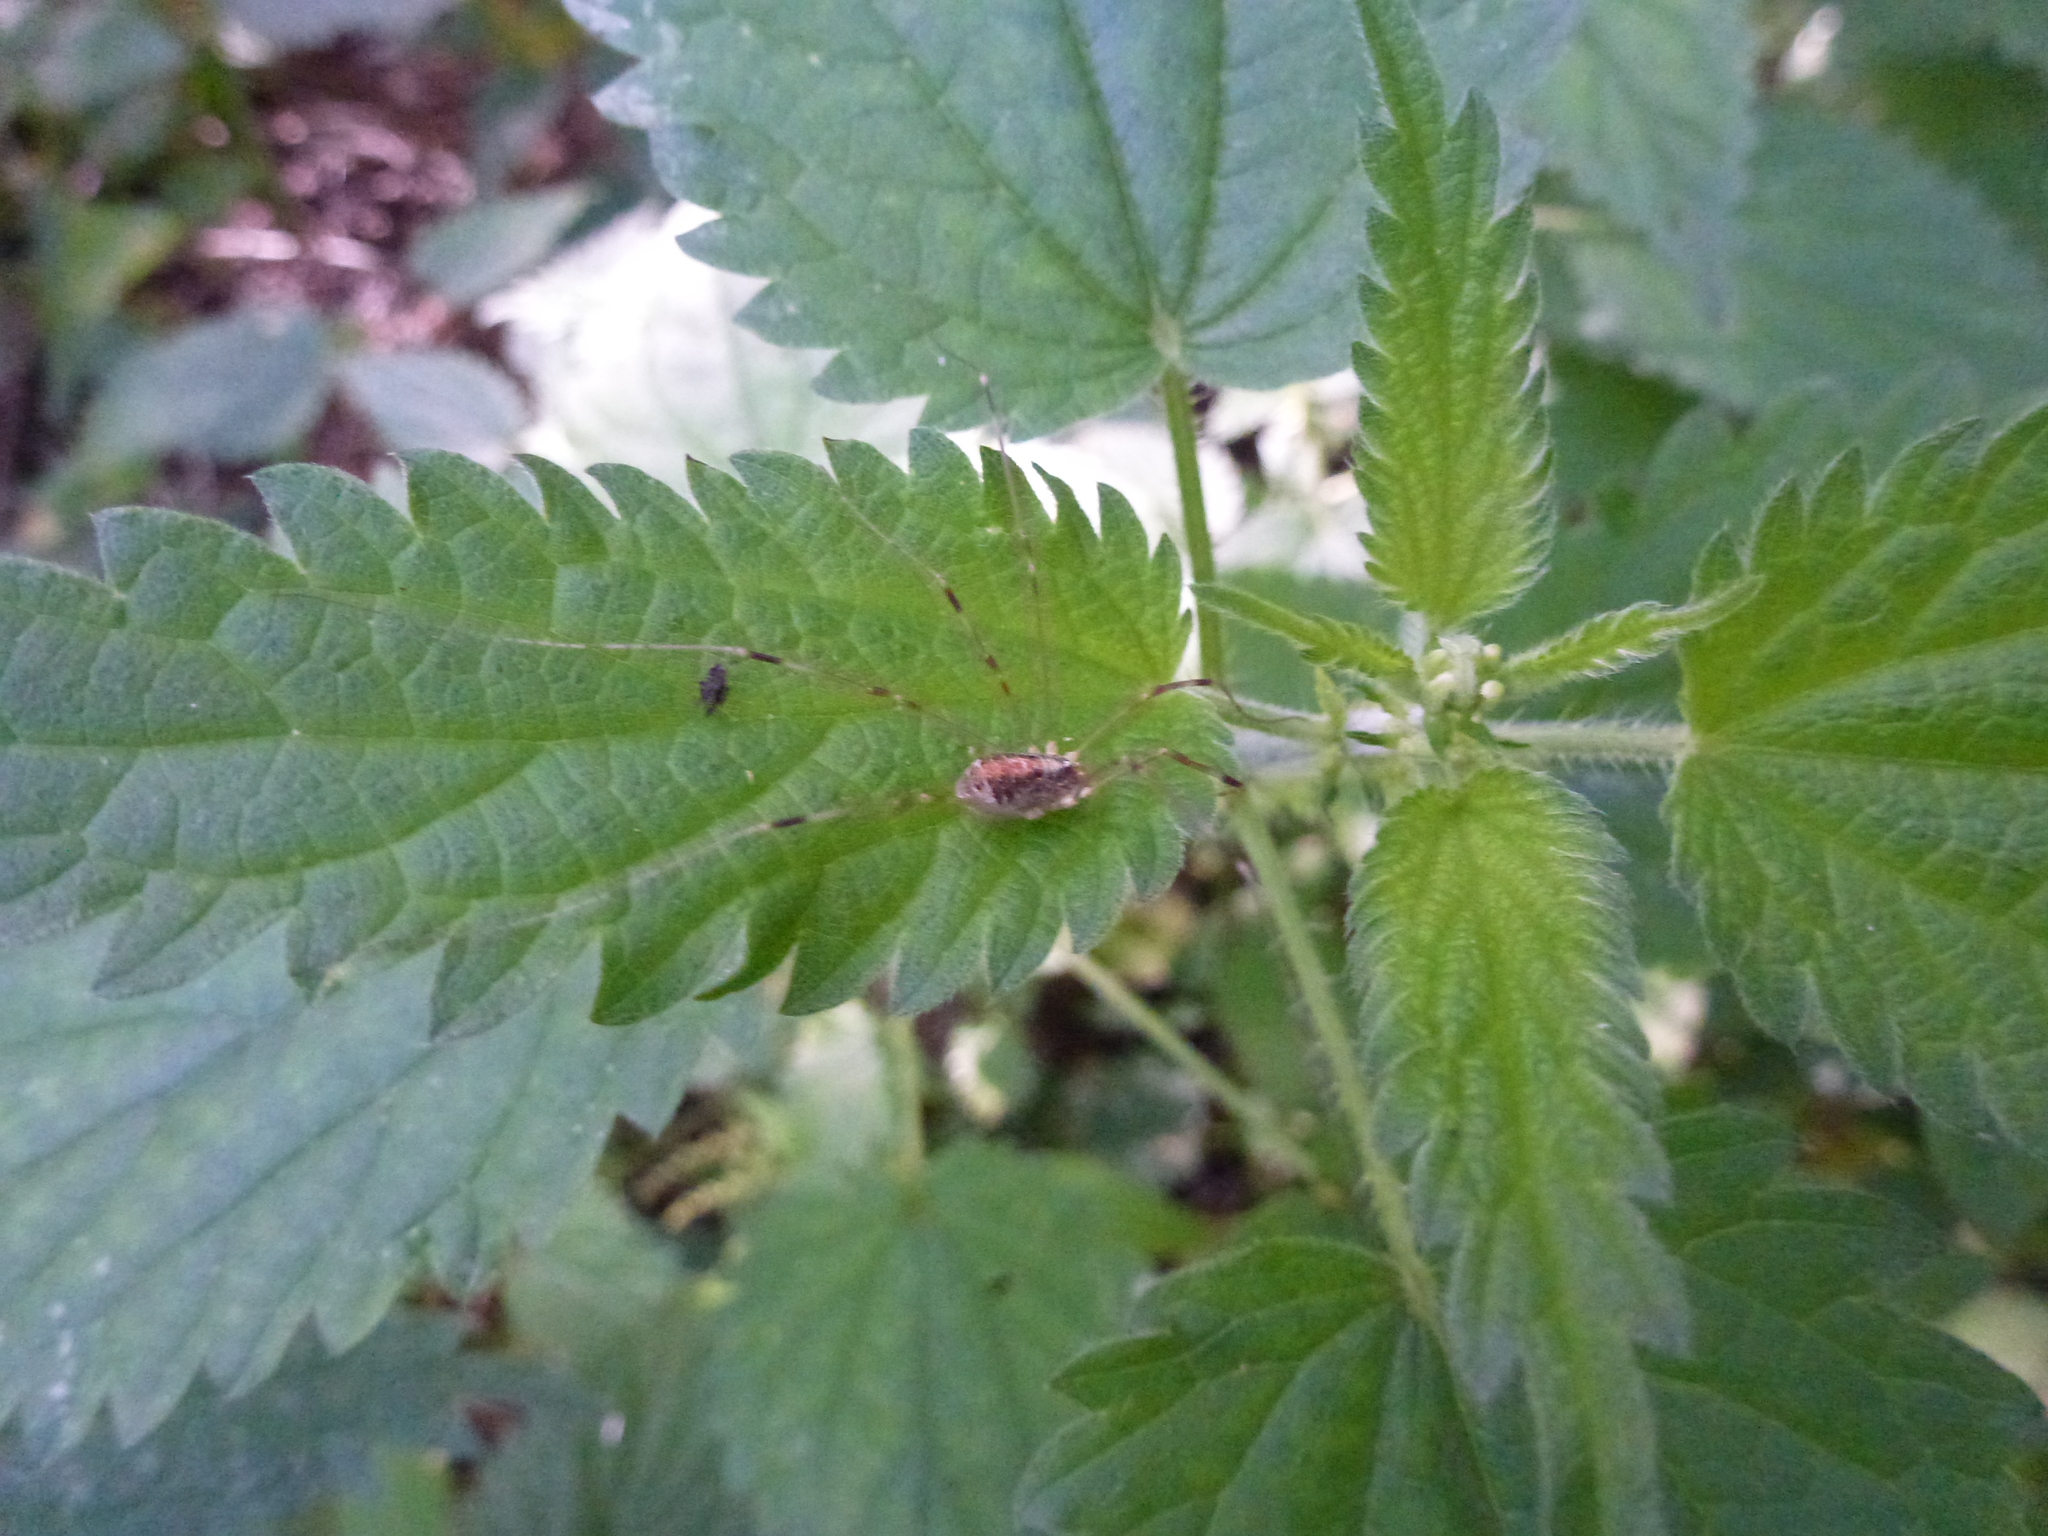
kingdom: Animalia
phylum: Arthropoda
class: Arachnida
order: Opiliones
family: Phalangiidae
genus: Opilio
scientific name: Opilio canestrinii
